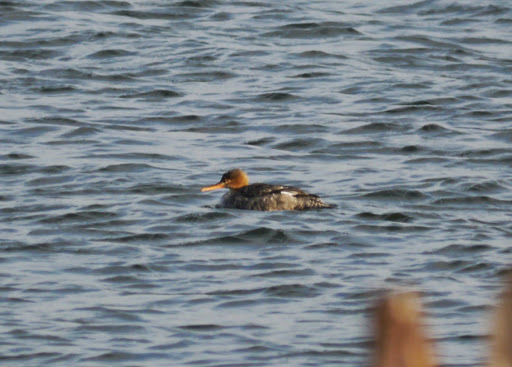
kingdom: Animalia
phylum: Chordata
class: Aves
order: Anseriformes
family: Anatidae
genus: Mergus
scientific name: Mergus serrator
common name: Red-breasted merganser
